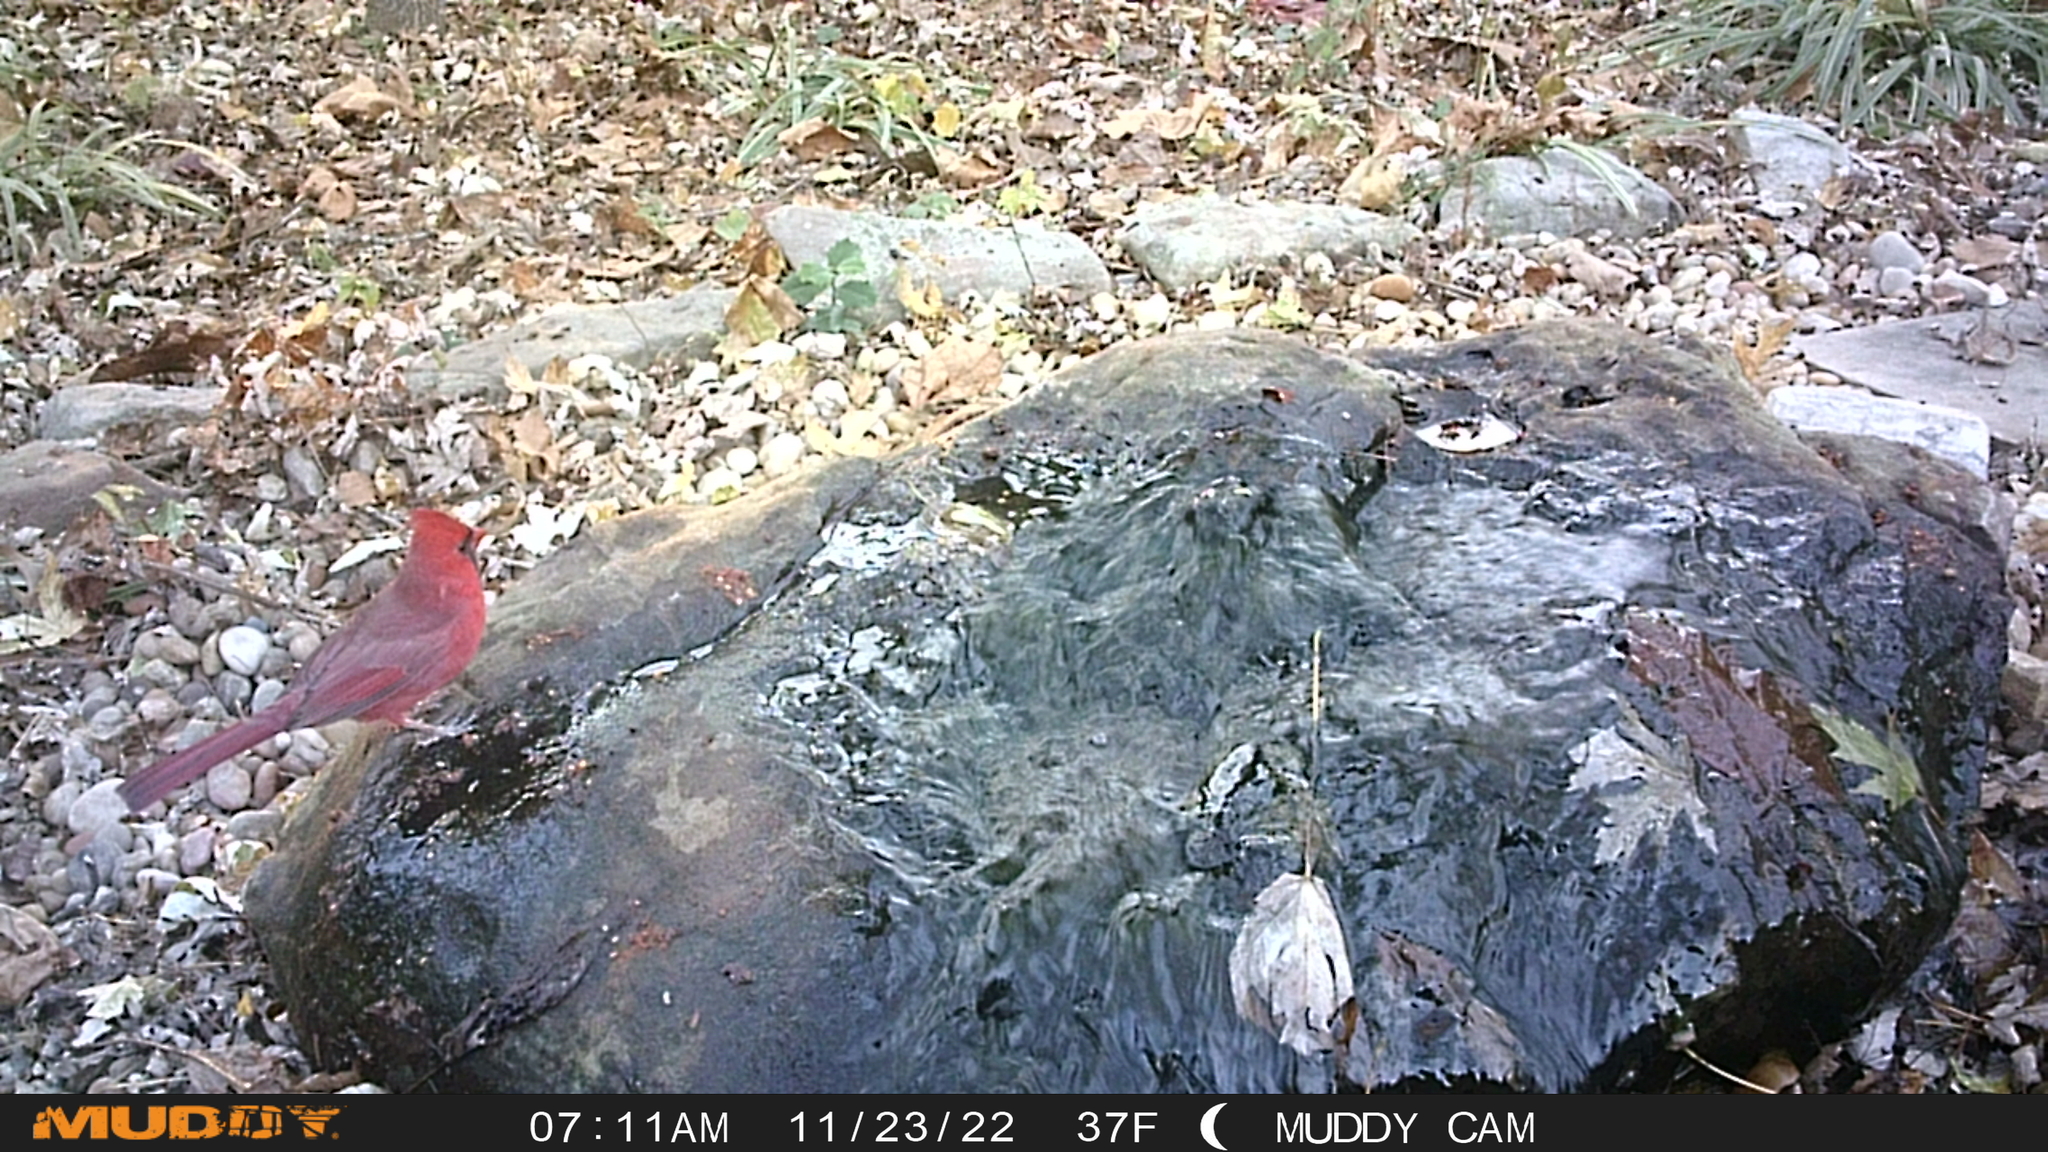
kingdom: Animalia
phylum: Chordata
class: Aves
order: Passeriformes
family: Cardinalidae
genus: Cardinalis
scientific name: Cardinalis cardinalis
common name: Northern cardinal
